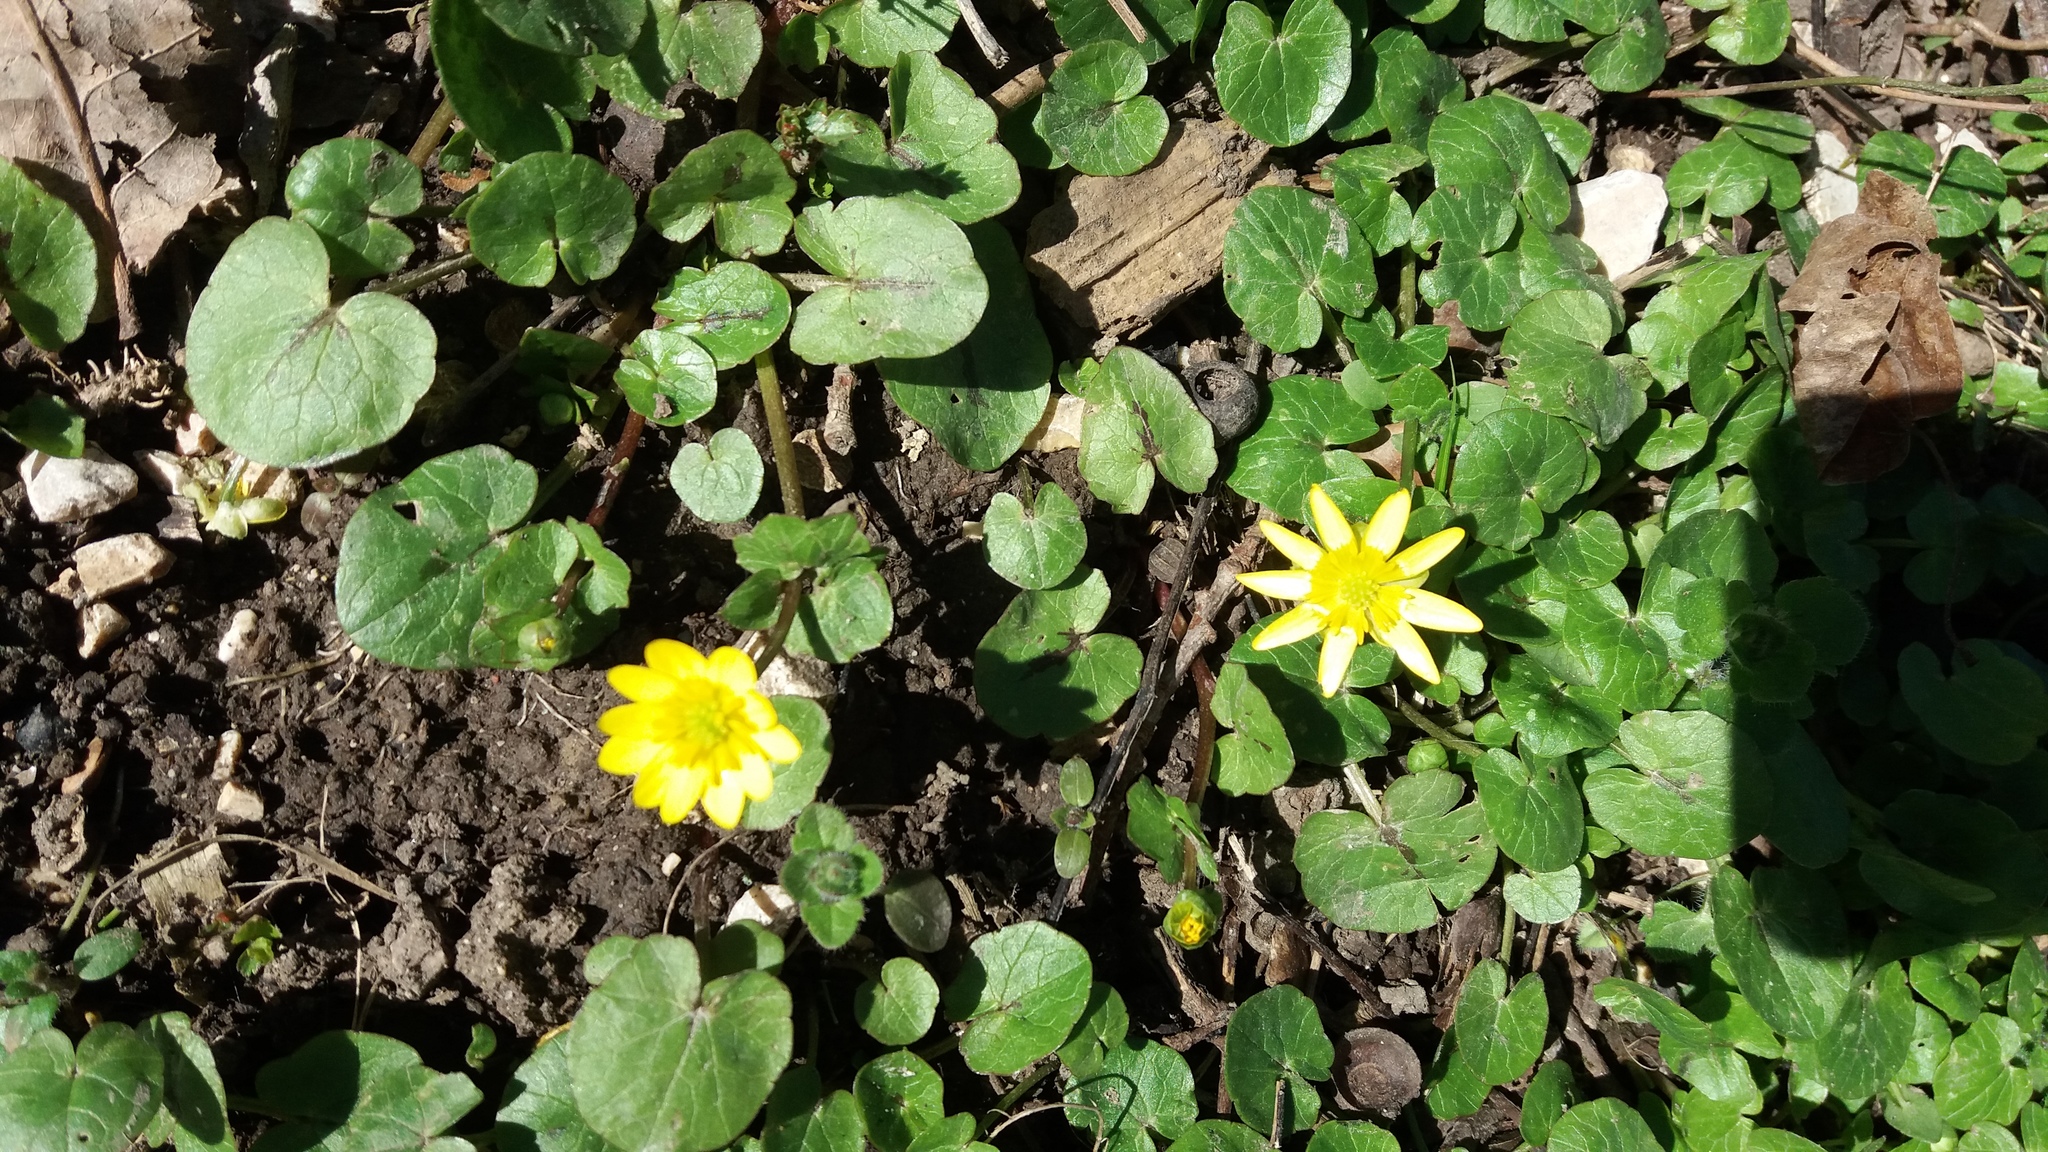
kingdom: Plantae
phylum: Tracheophyta
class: Magnoliopsida
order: Ranunculales
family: Ranunculaceae
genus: Ficaria
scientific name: Ficaria verna
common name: Lesser celandine
